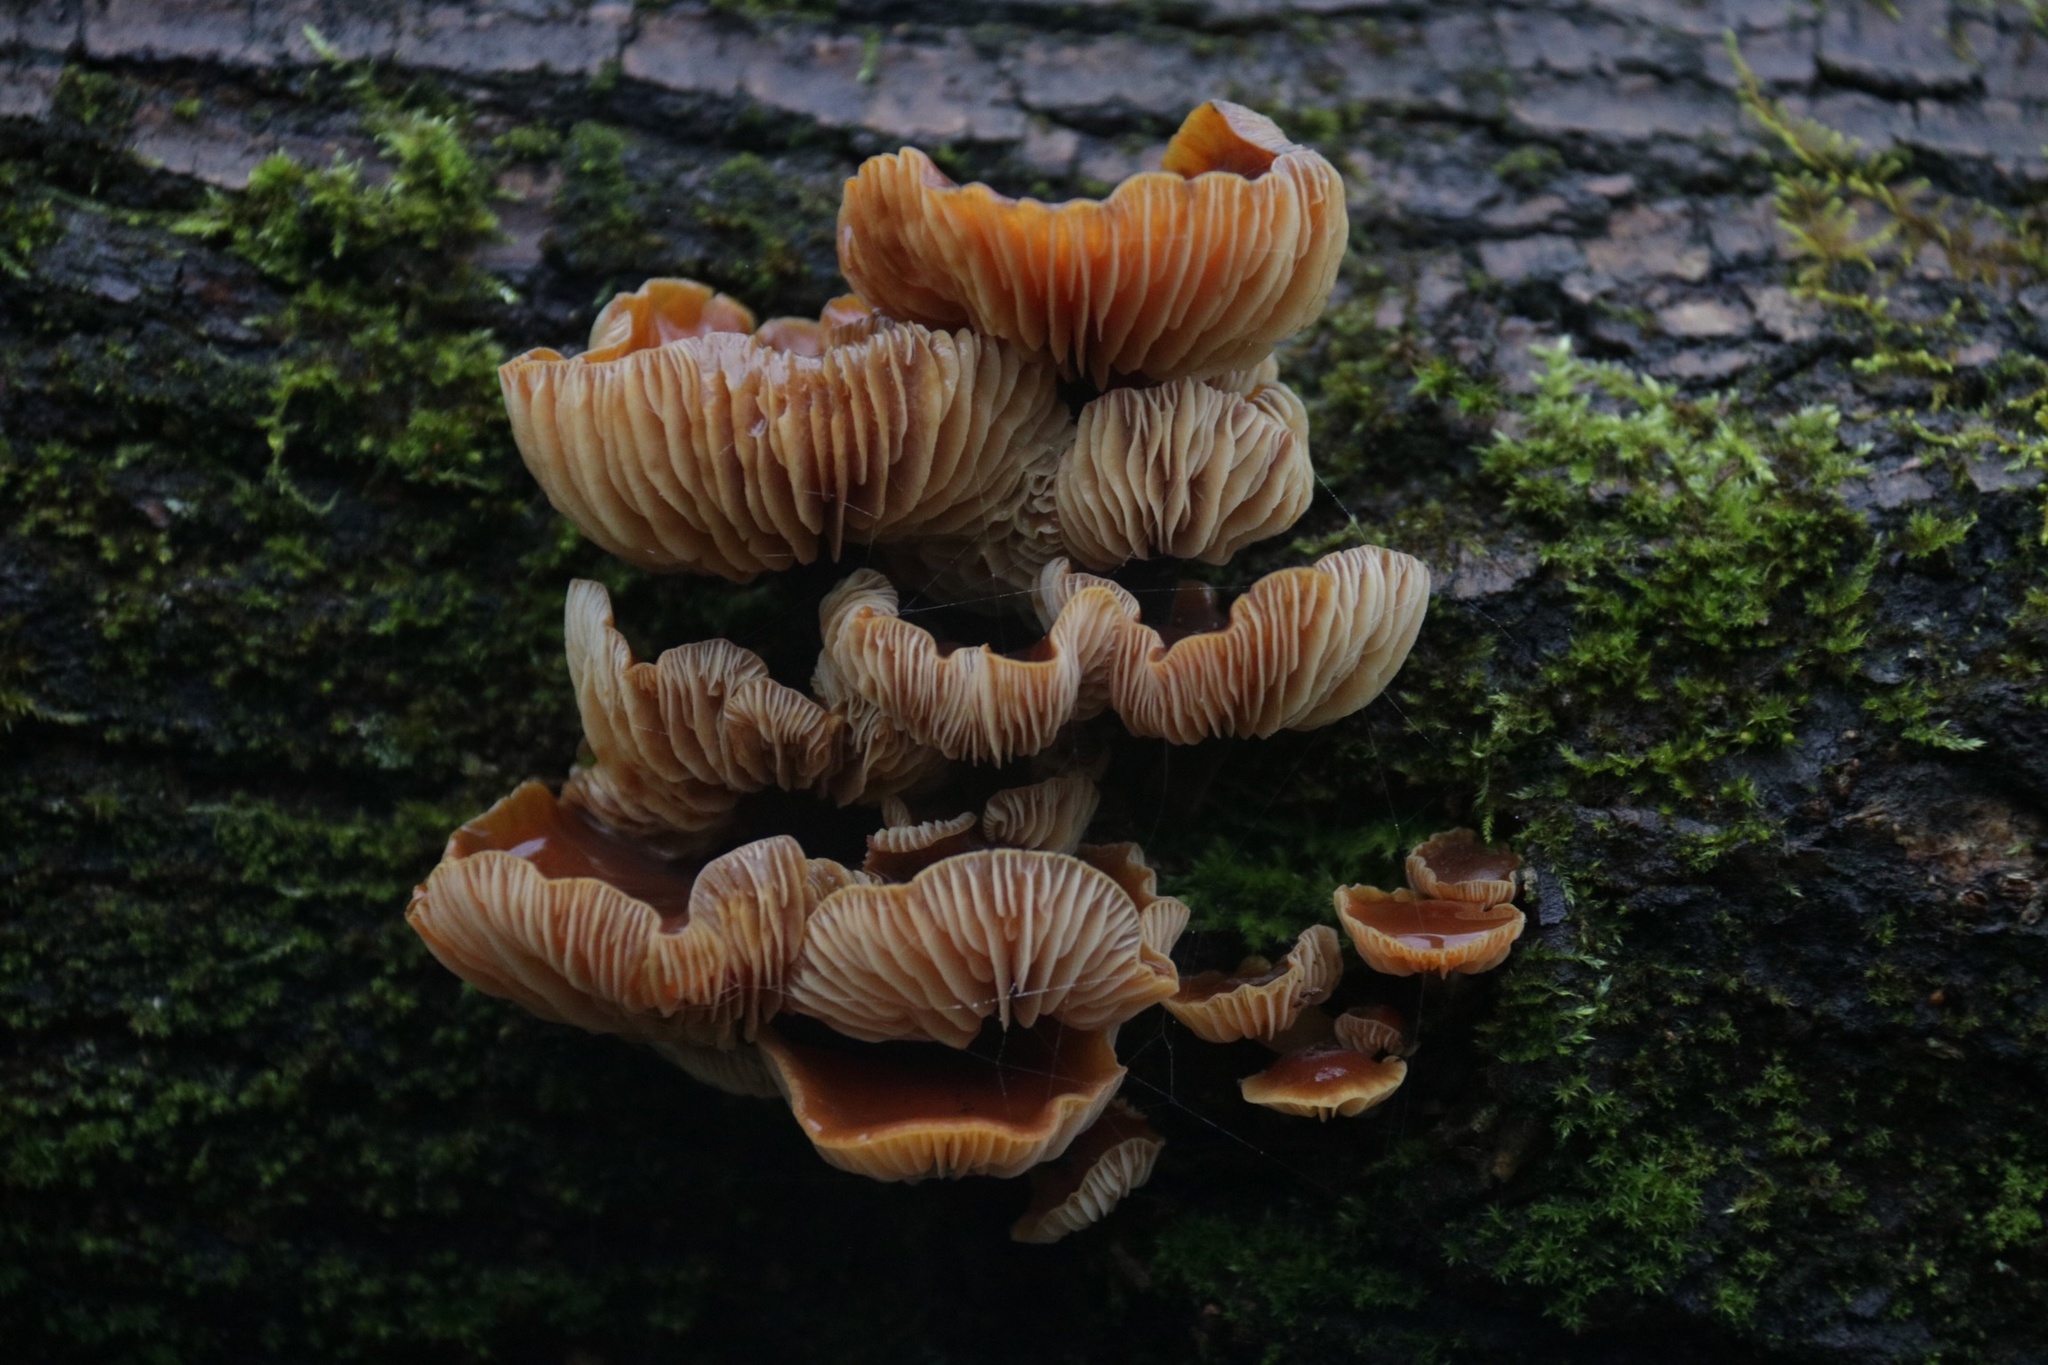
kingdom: Fungi
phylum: Basidiomycota
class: Agaricomycetes
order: Agaricales
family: Physalacriaceae
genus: Flammulina
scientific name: Flammulina
